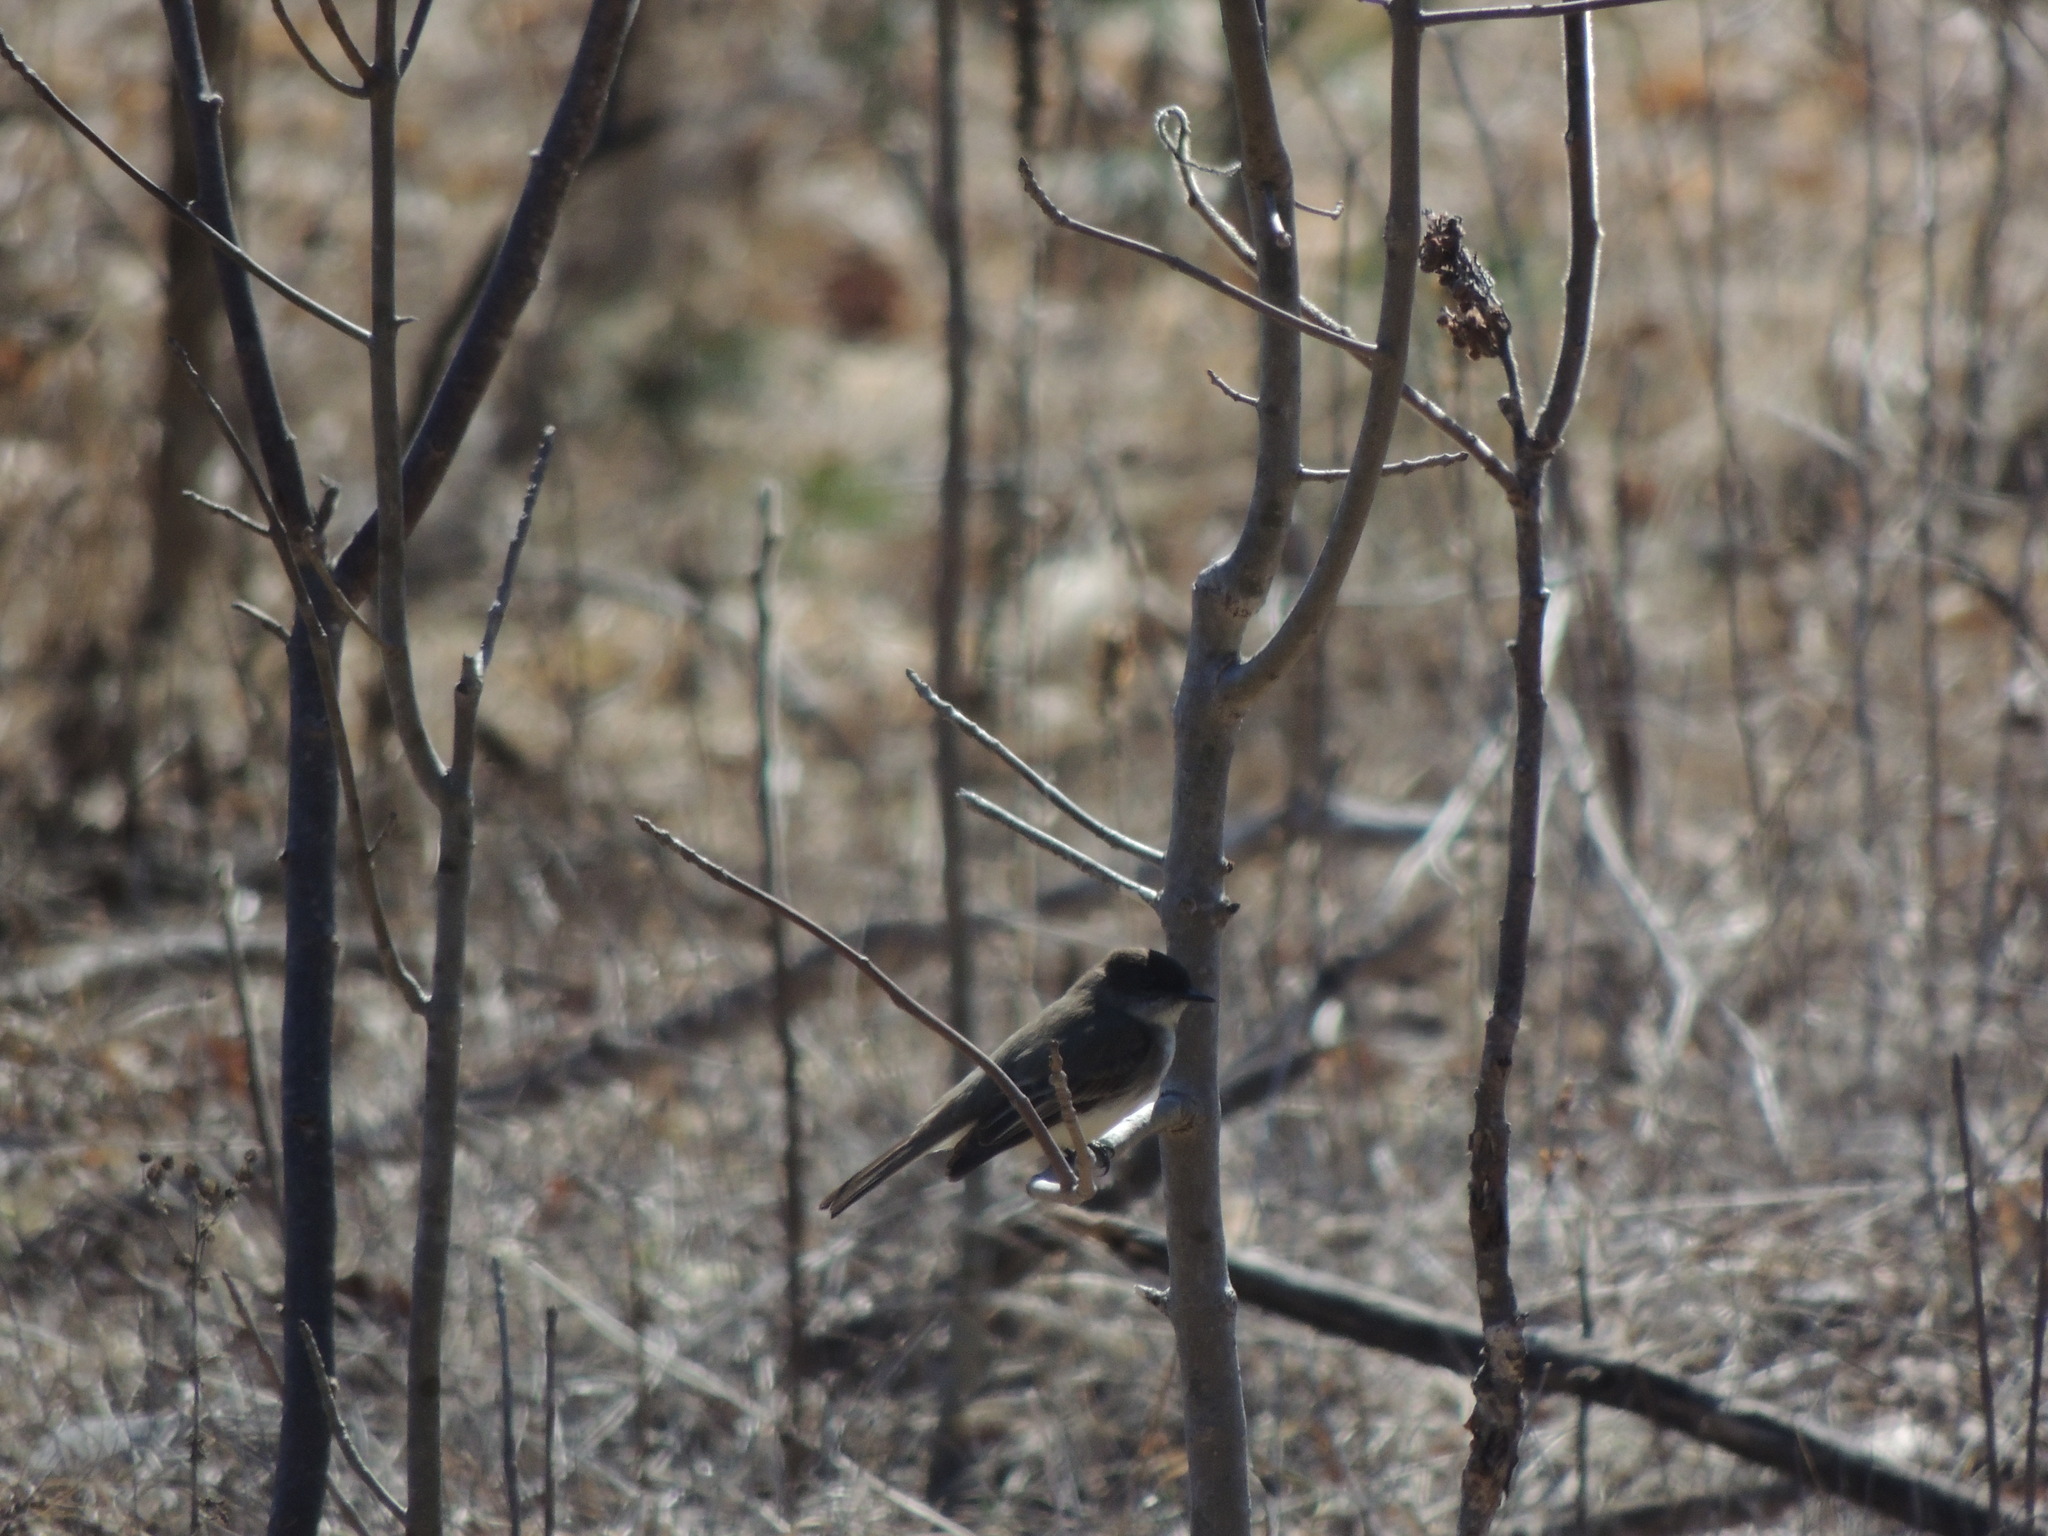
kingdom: Animalia
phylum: Chordata
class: Aves
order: Passeriformes
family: Tyrannidae
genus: Sayornis
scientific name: Sayornis phoebe
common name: Eastern phoebe
